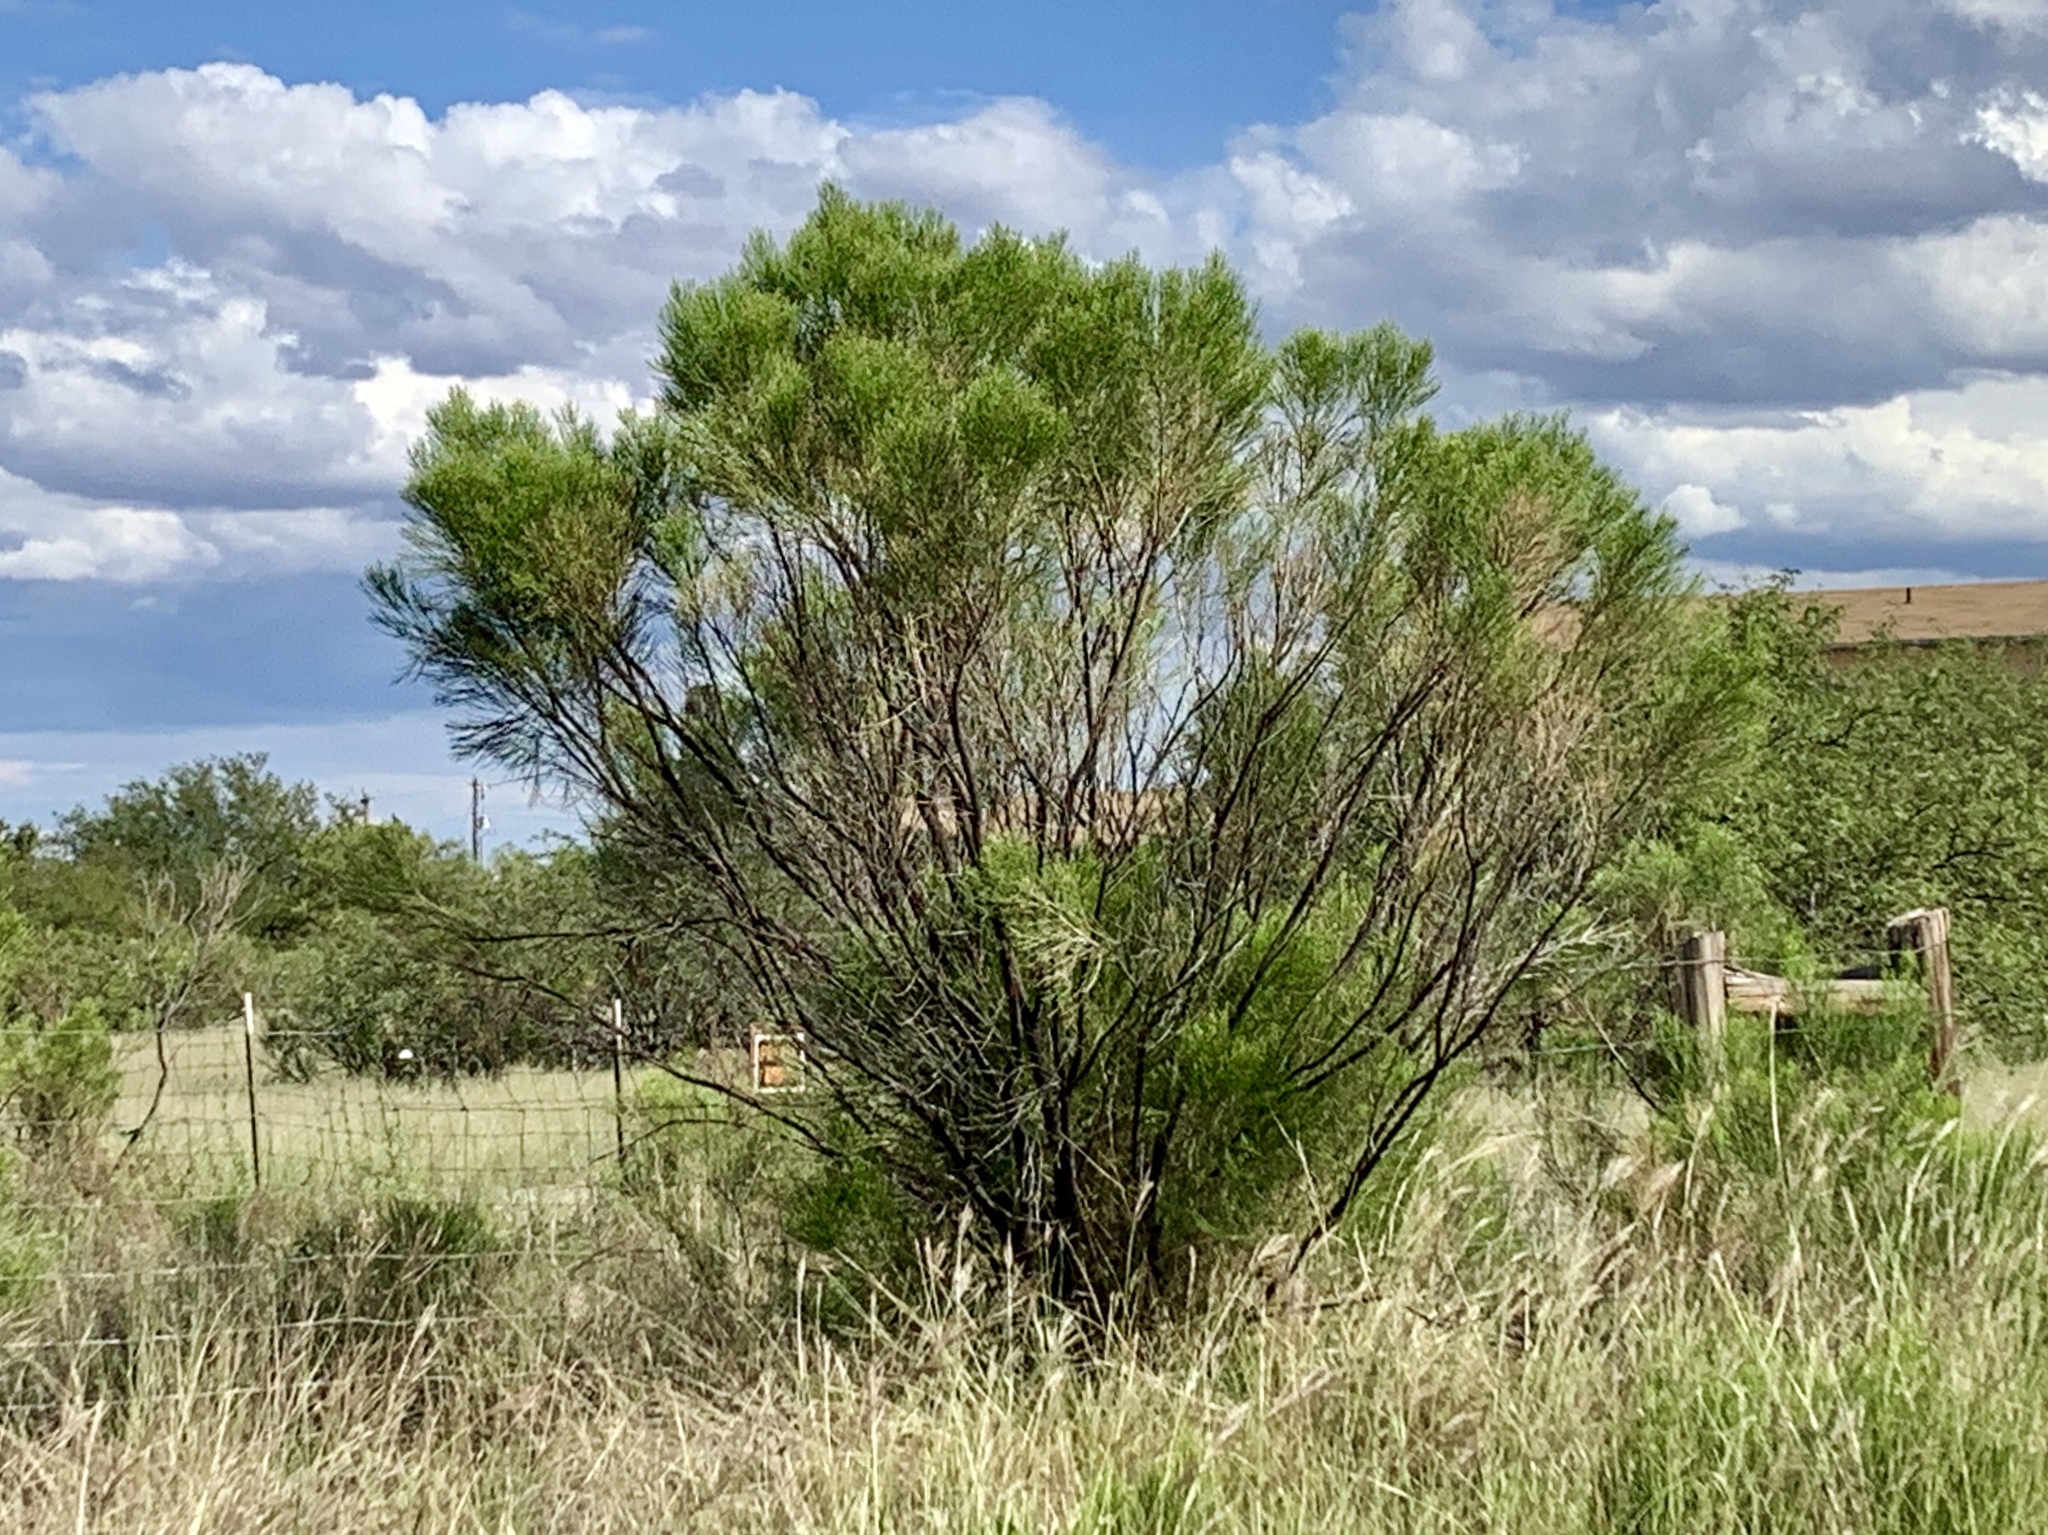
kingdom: Plantae
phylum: Tracheophyta
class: Magnoliopsida
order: Asterales
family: Asteraceae
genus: Baccharis
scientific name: Baccharis sarothroides
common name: Desert-broom
